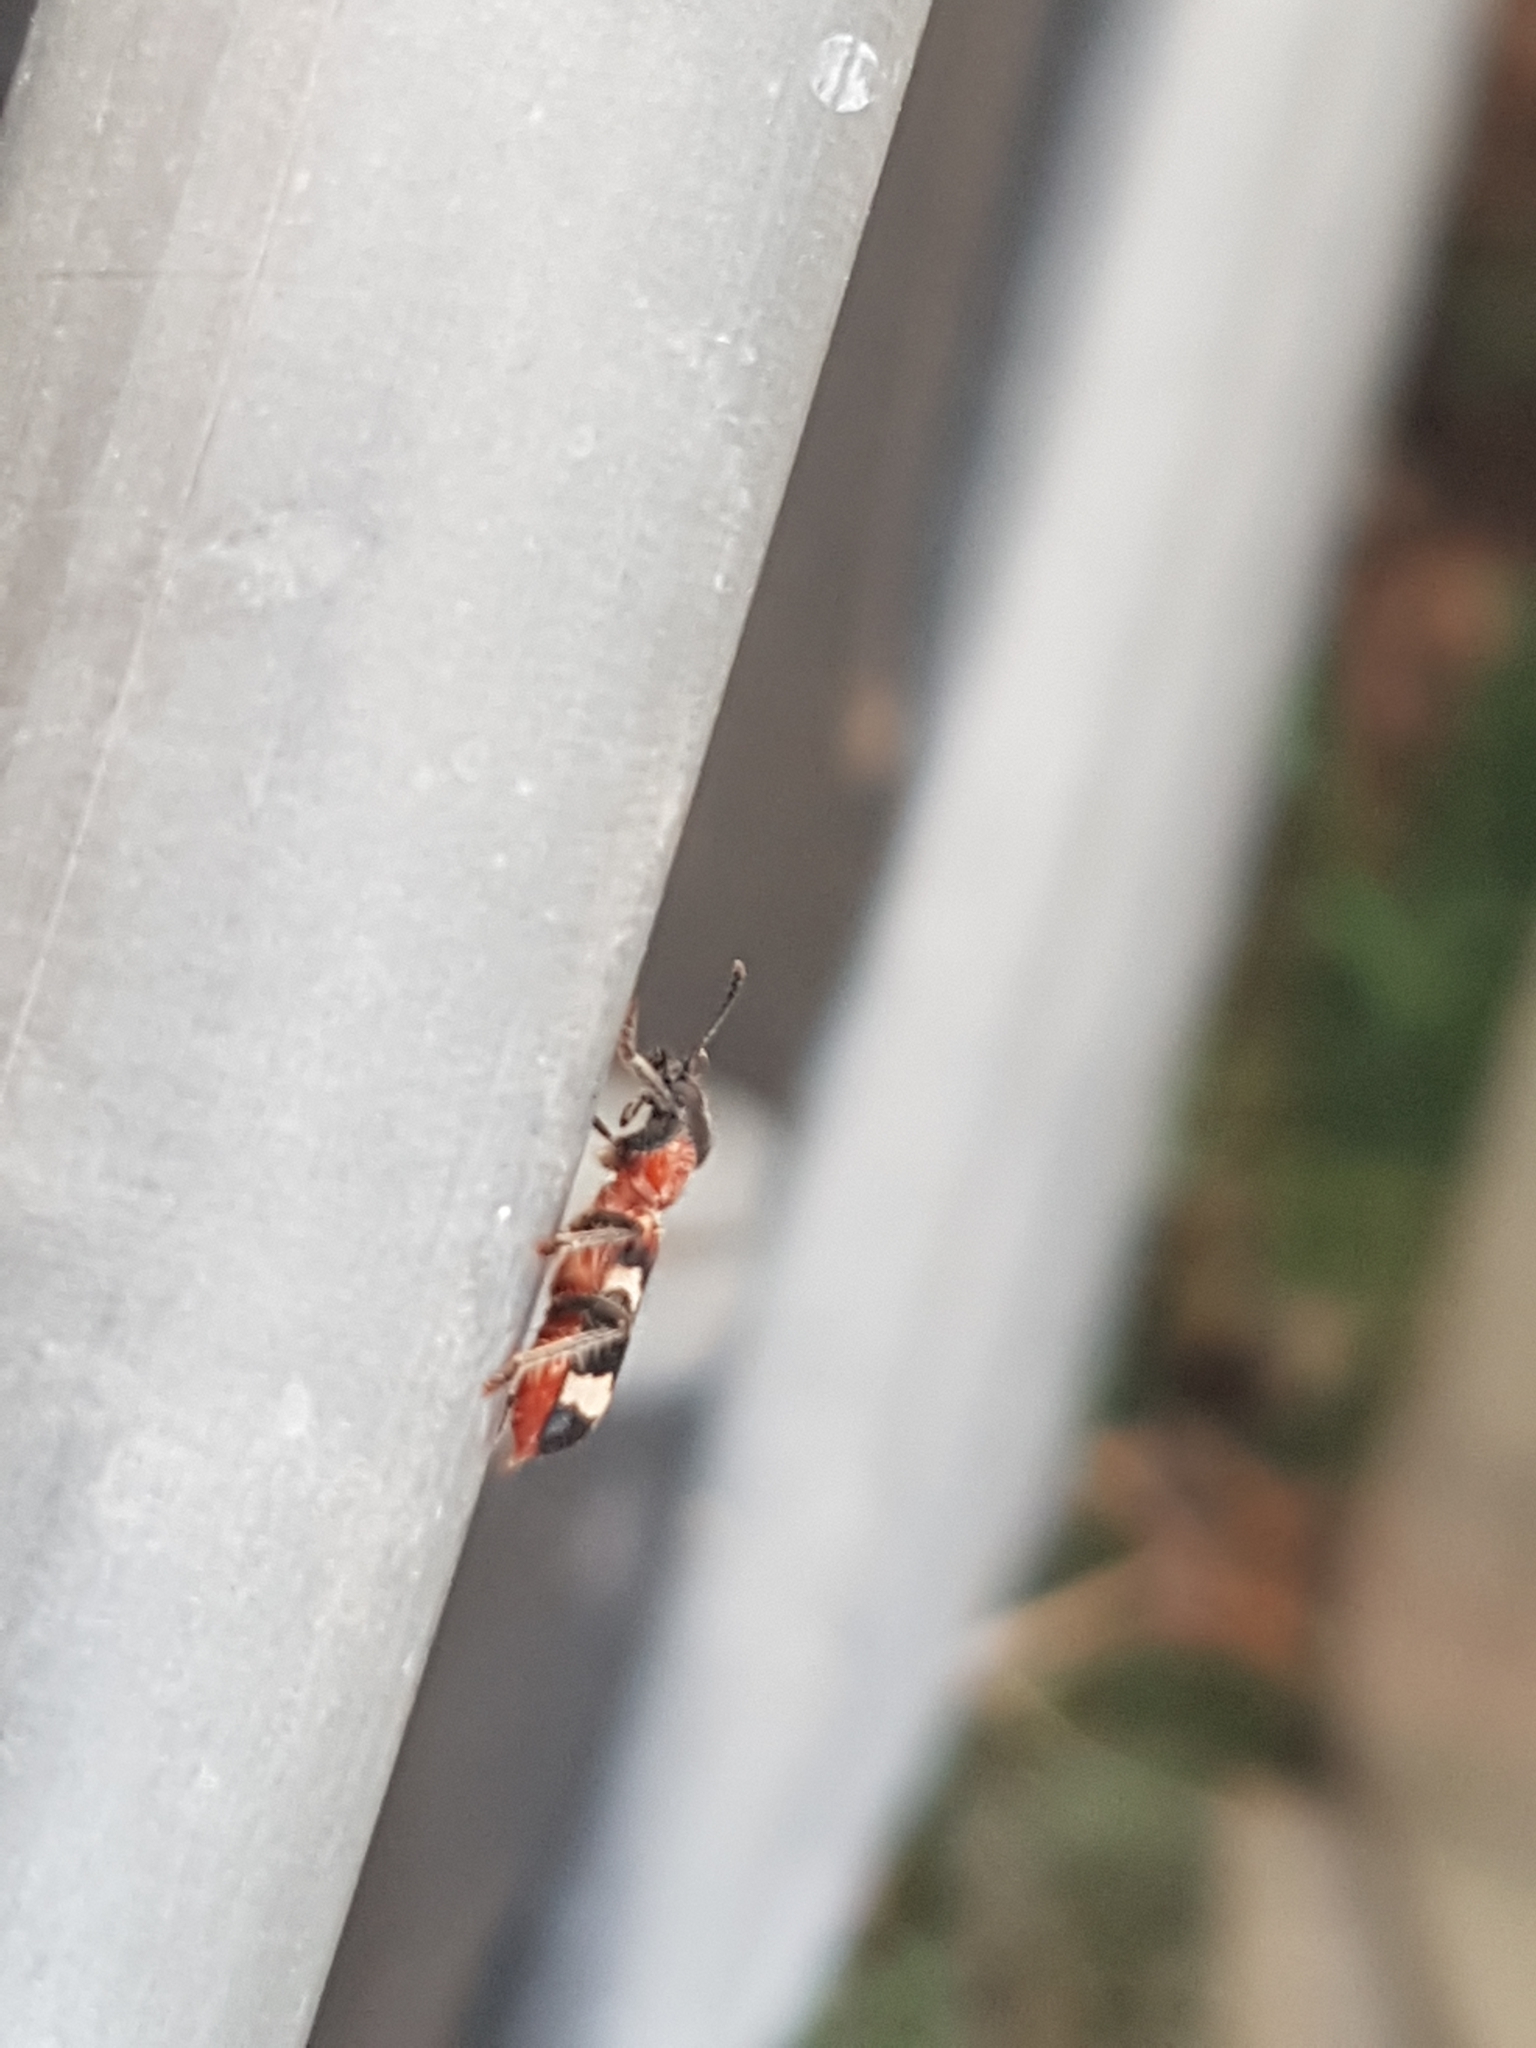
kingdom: Animalia
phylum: Arthropoda
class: Insecta
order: Coleoptera
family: Cleridae
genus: Thanasimus
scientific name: Thanasimus formicarius
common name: Ant beetle
